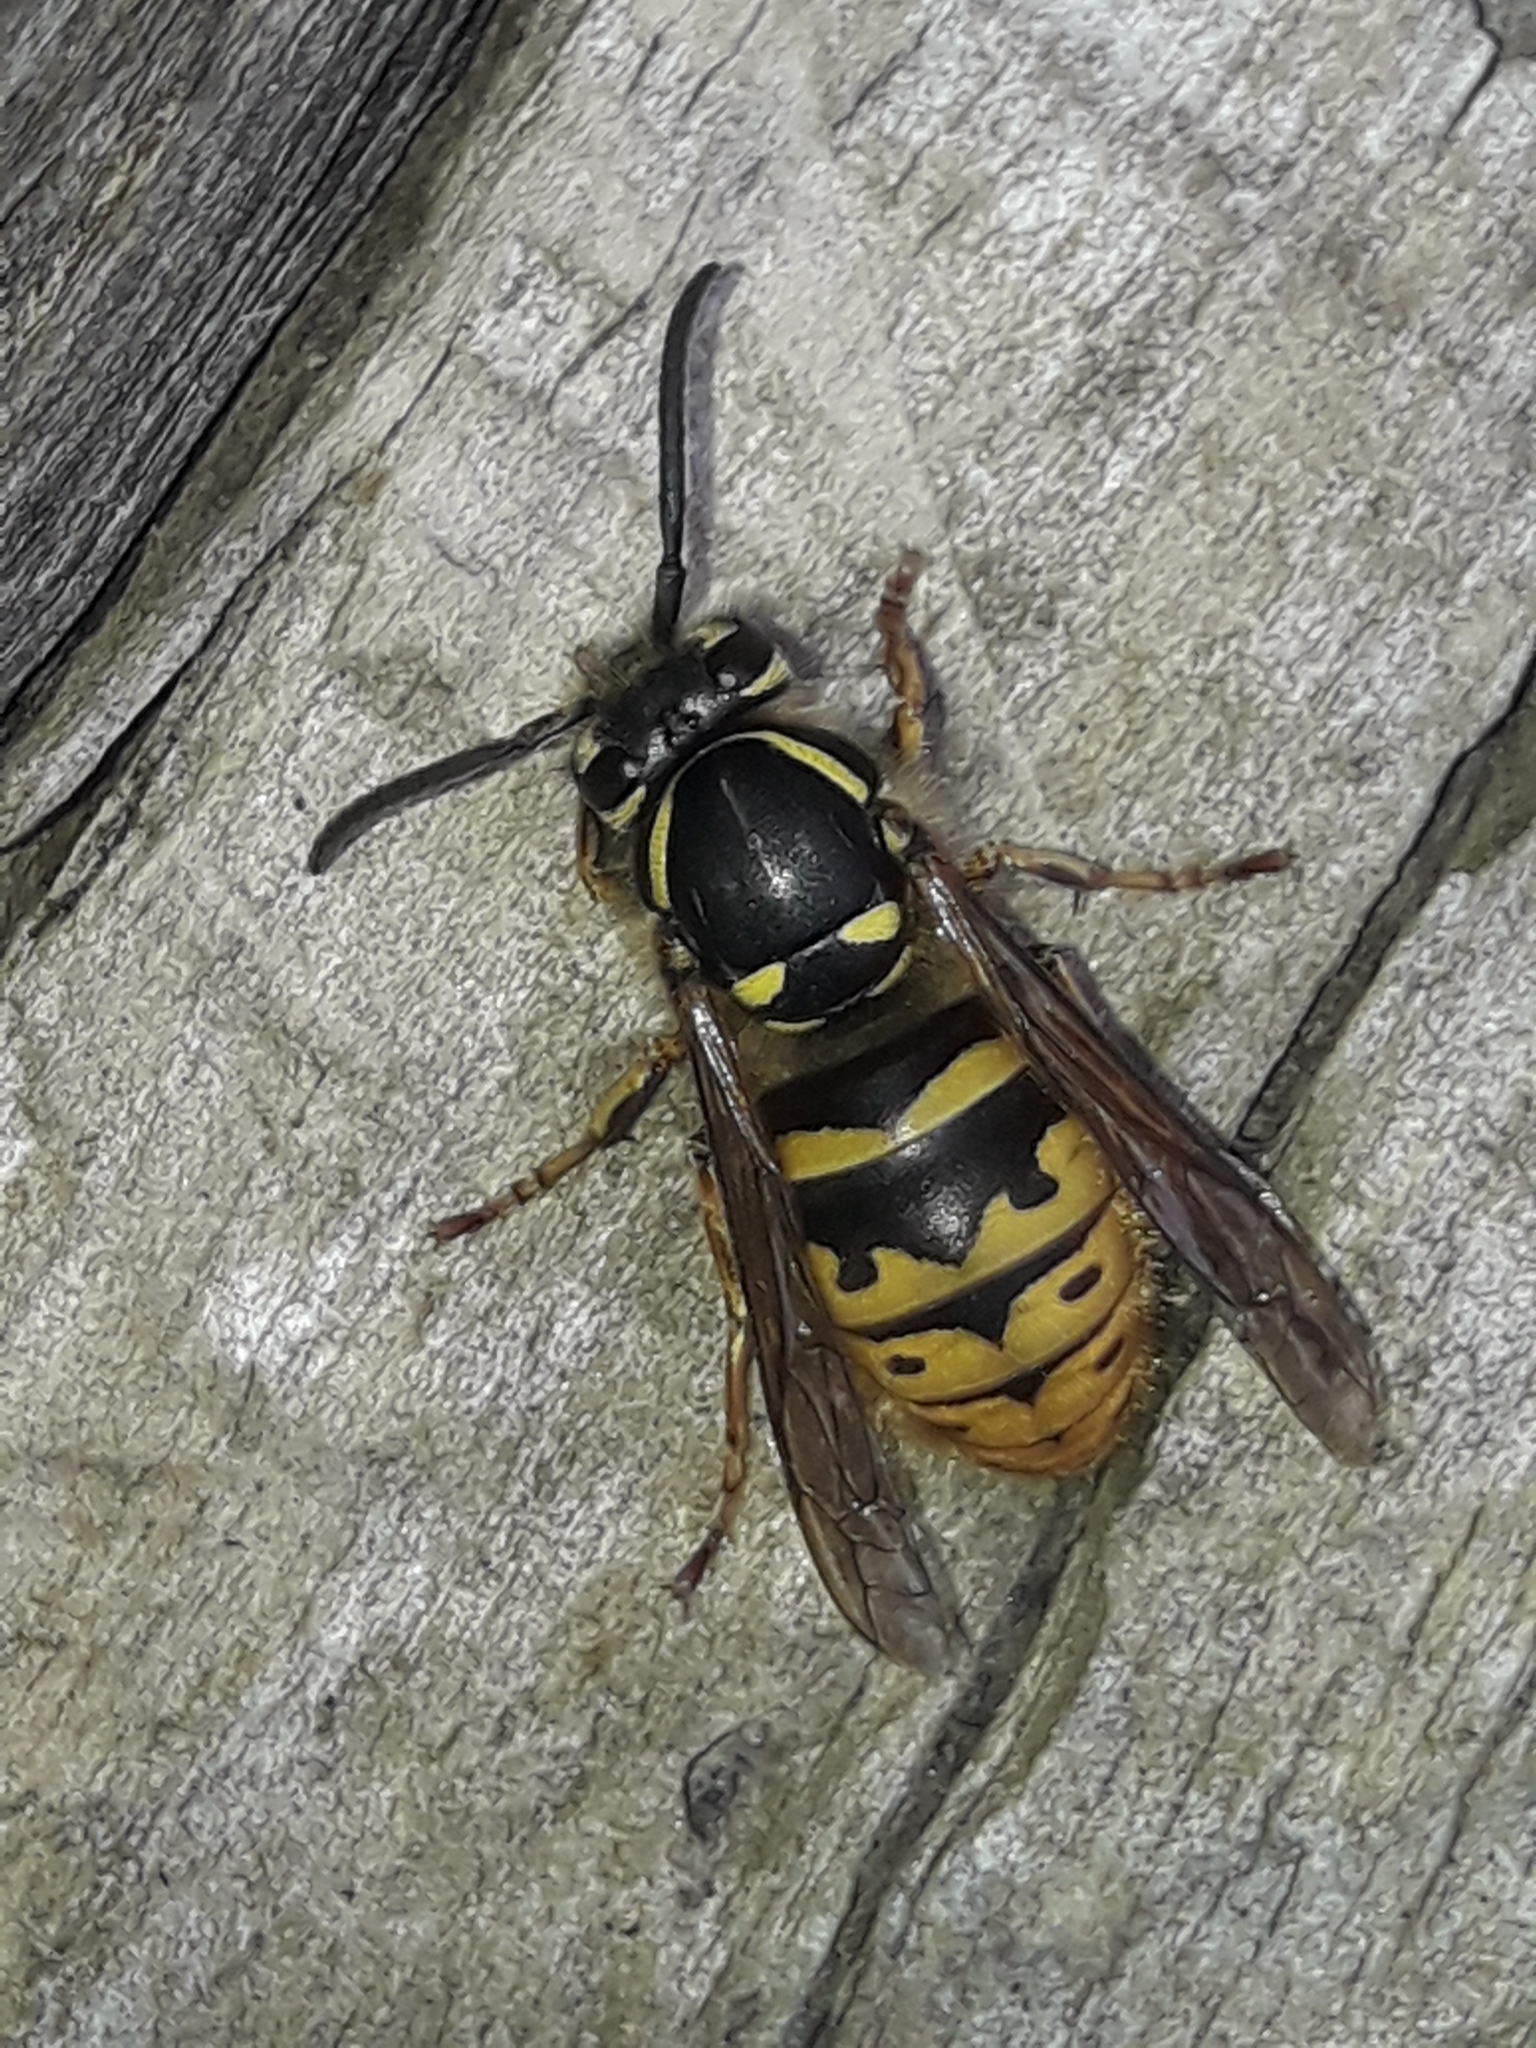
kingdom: Animalia
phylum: Arthropoda
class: Insecta
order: Hymenoptera
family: Vespidae
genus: Vespula
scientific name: Vespula vulgaris
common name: Common wasp
